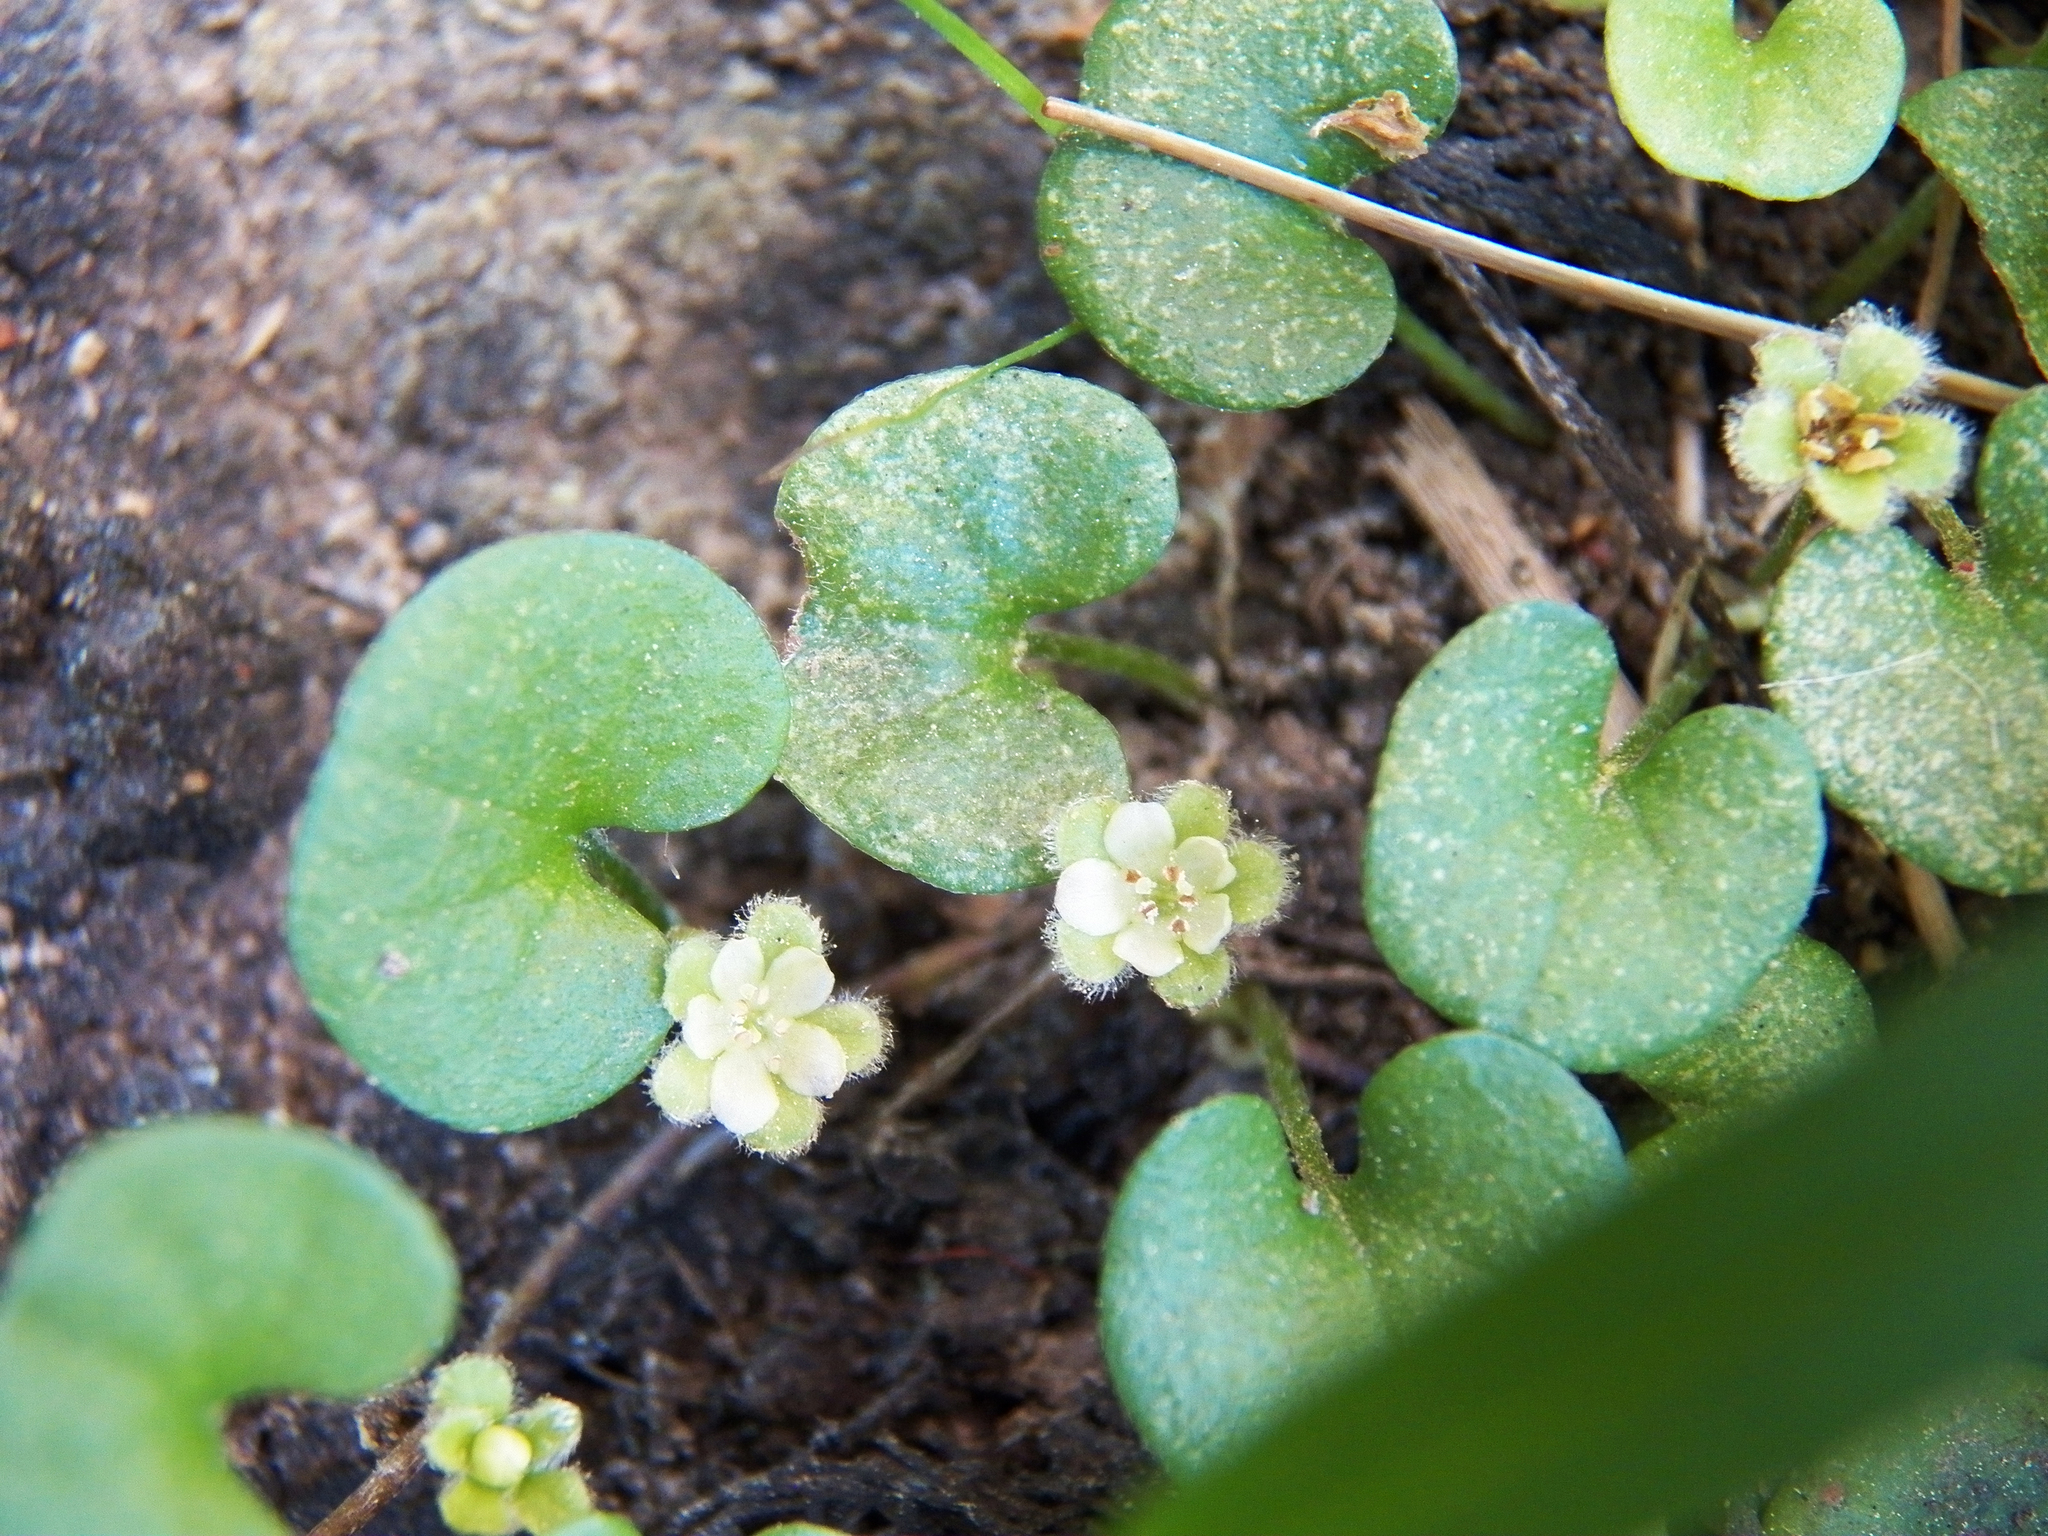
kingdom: Plantae
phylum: Tracheophyta
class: Magnoliopsida
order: Solanales
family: Convolvulaceae
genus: Dichondra
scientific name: Dichondra carolinensis
